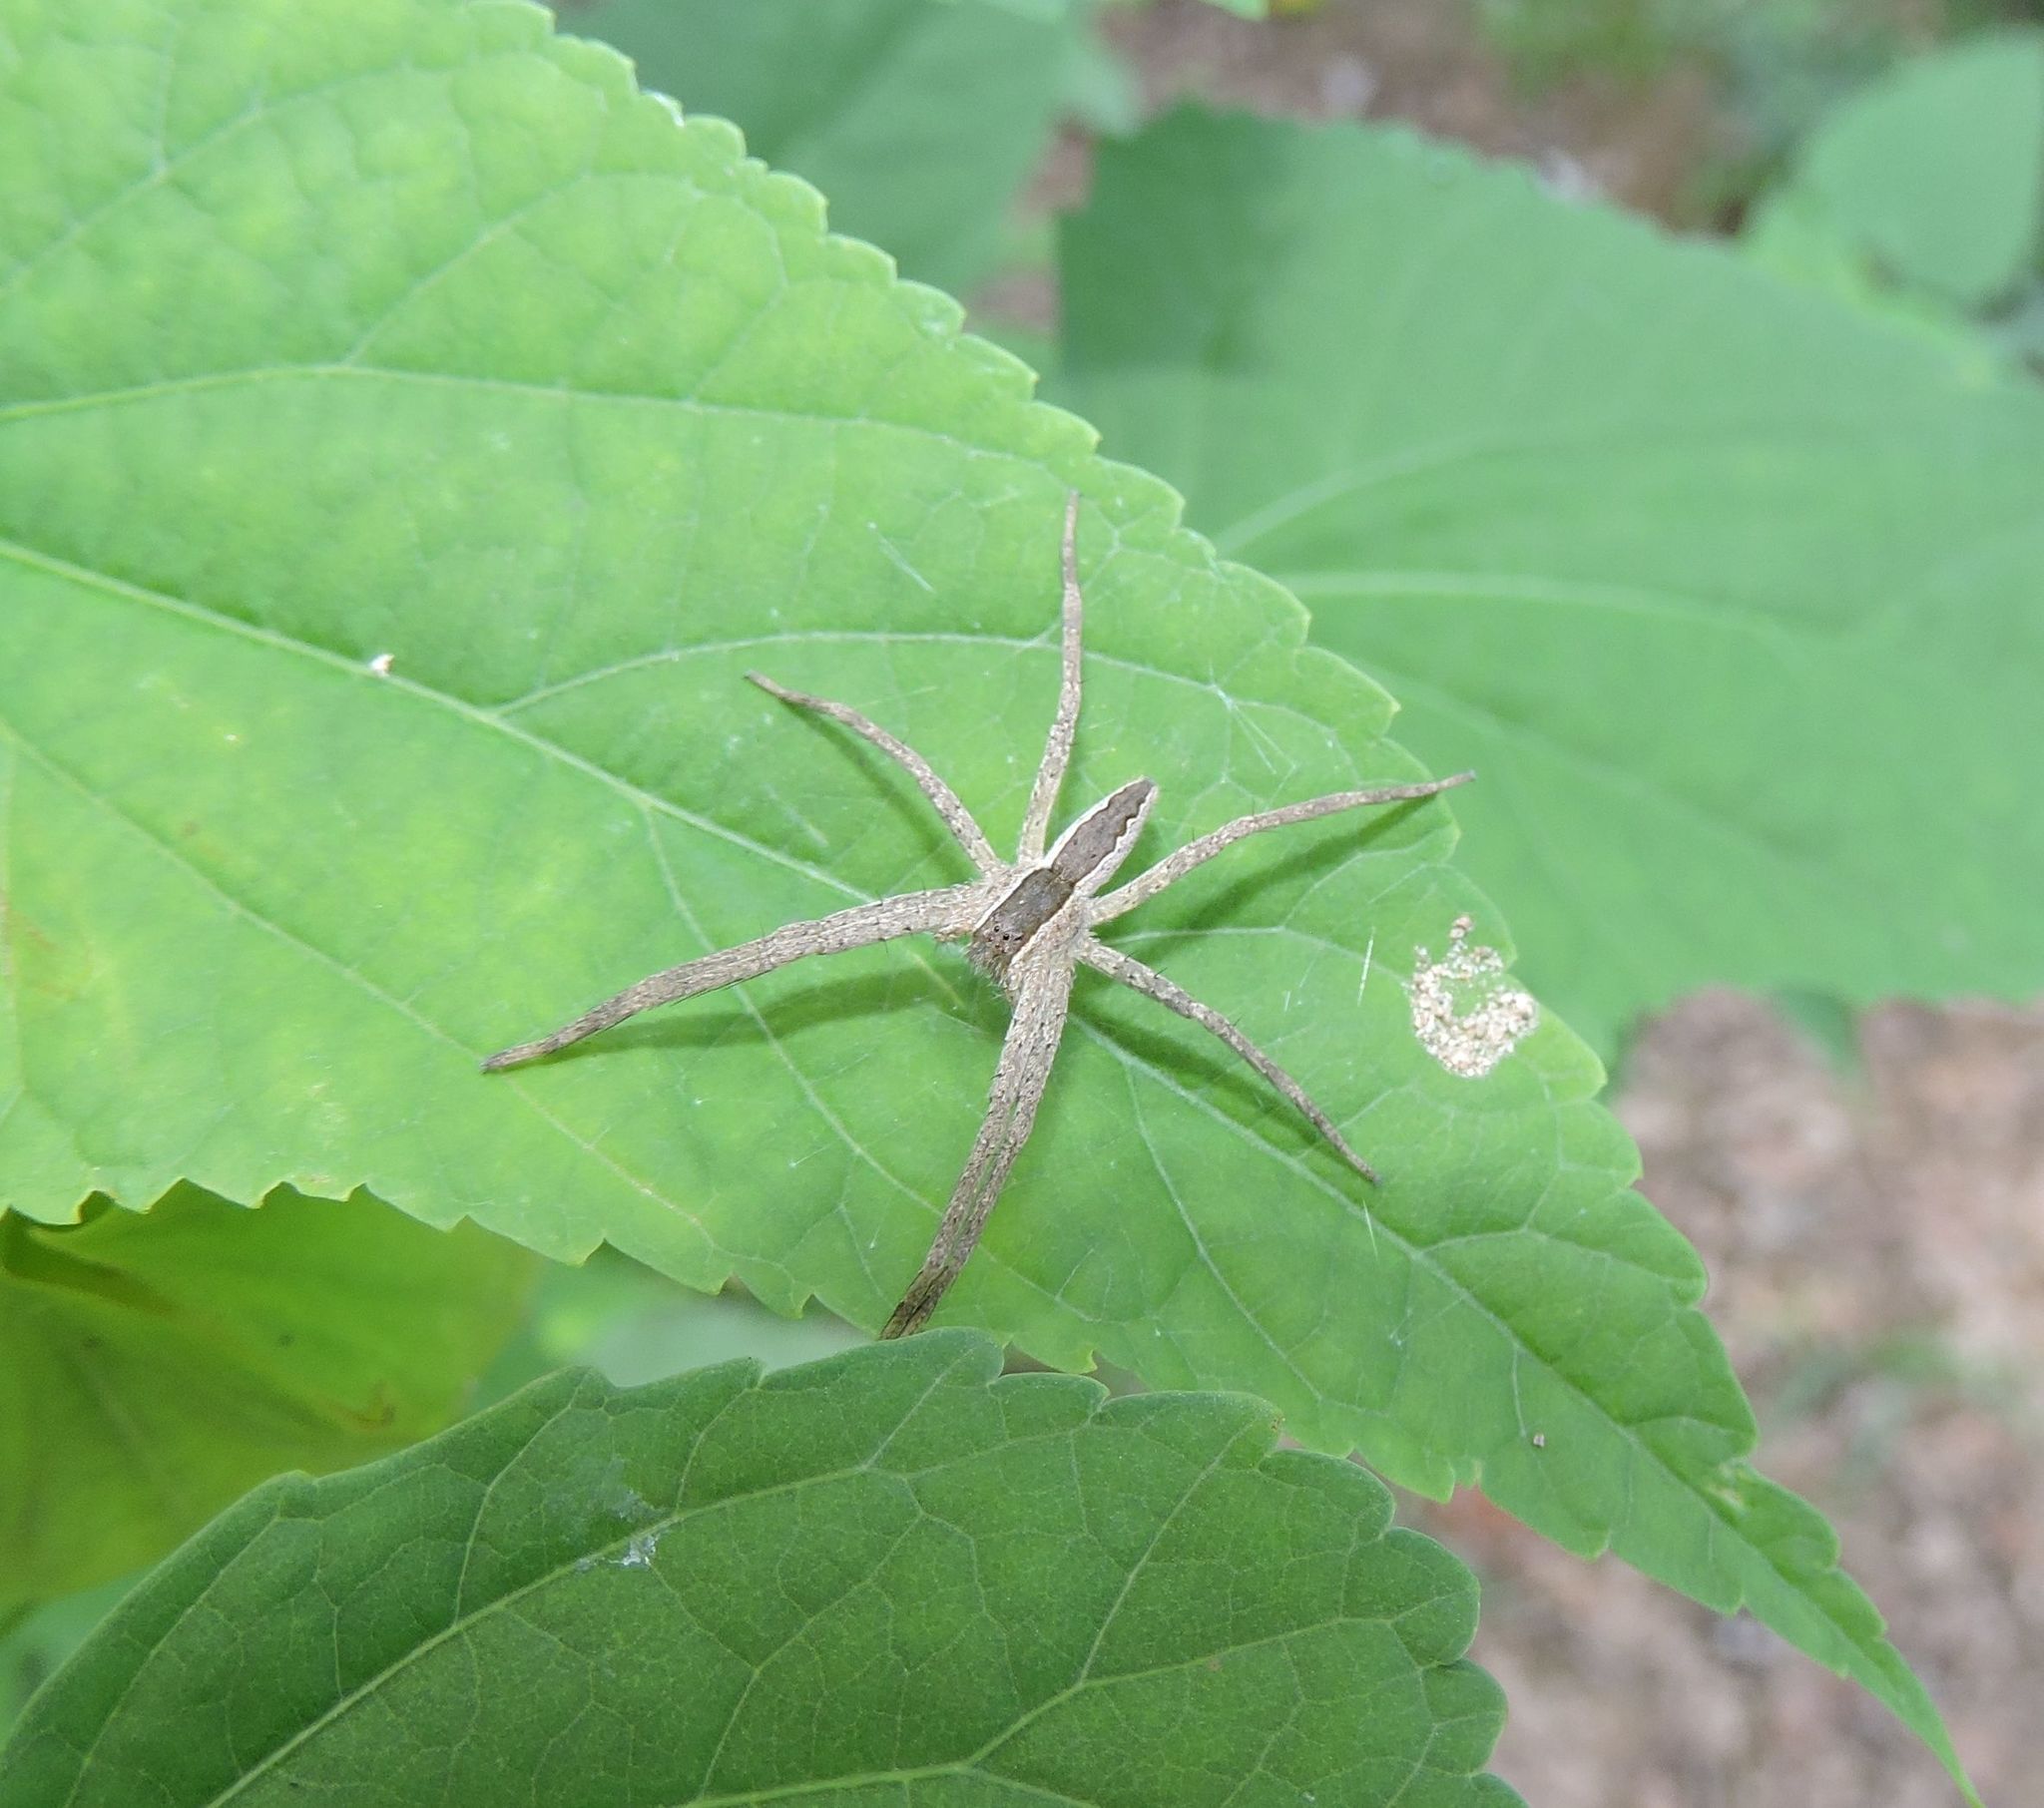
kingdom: Animalia
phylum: Arthropoda
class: Arachnida
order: Araneae
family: Pisauridae
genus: Pisaurina
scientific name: Pisaurina mira
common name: American nursery web spider
